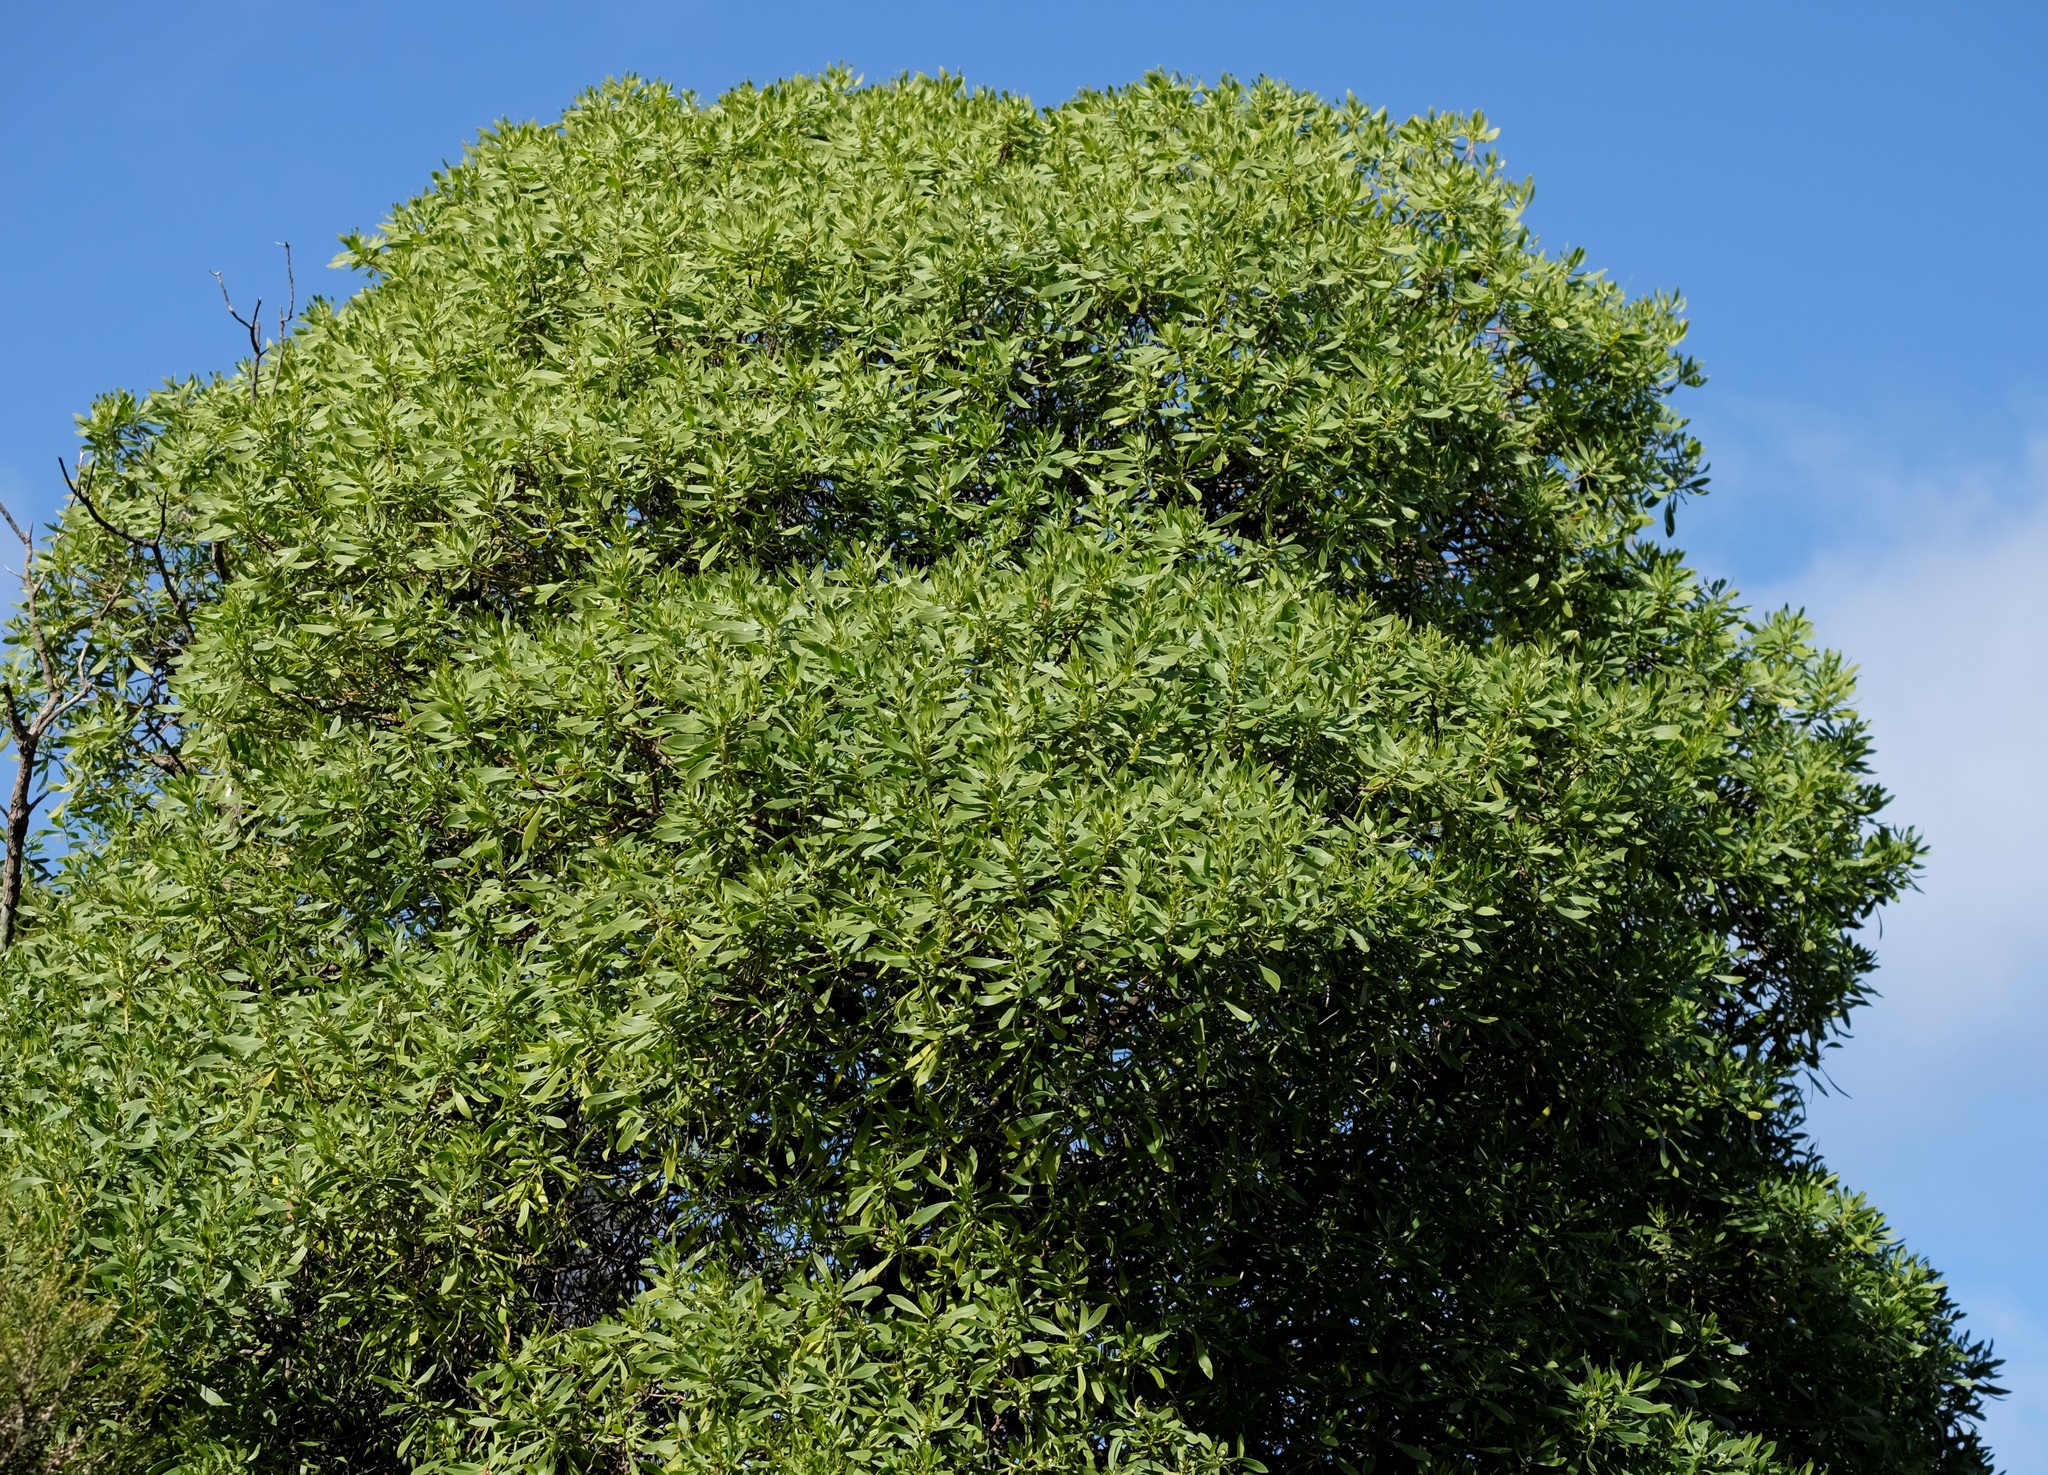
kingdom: Plantae
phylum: Tracheophyta
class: Magnoliopsida
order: Lamiales
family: Scrophulariaceae
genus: Myoporum
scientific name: Myoporum insulare
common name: Common boobialla
